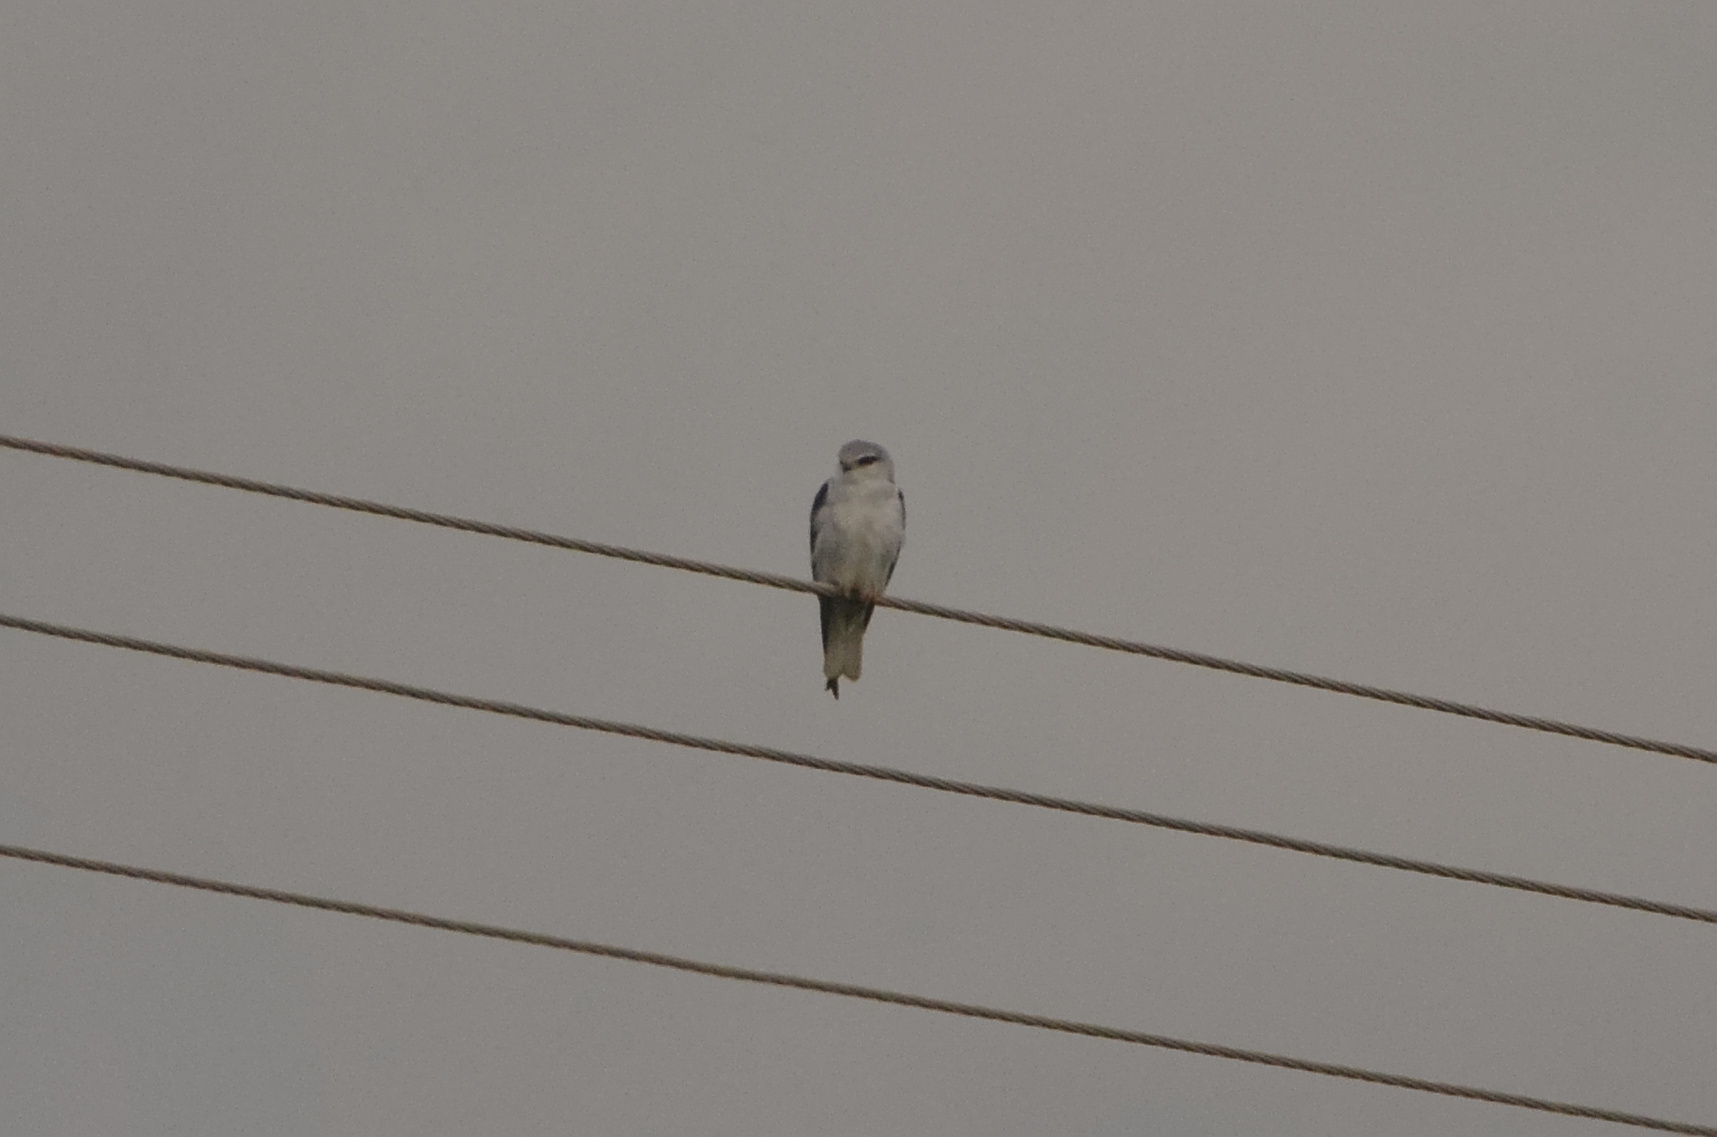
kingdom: Animalia
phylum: Chordata
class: Aves
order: Accipitriformes
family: Accipitridae
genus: Elanus
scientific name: Elanus caeruleus
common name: Black-winged kite
